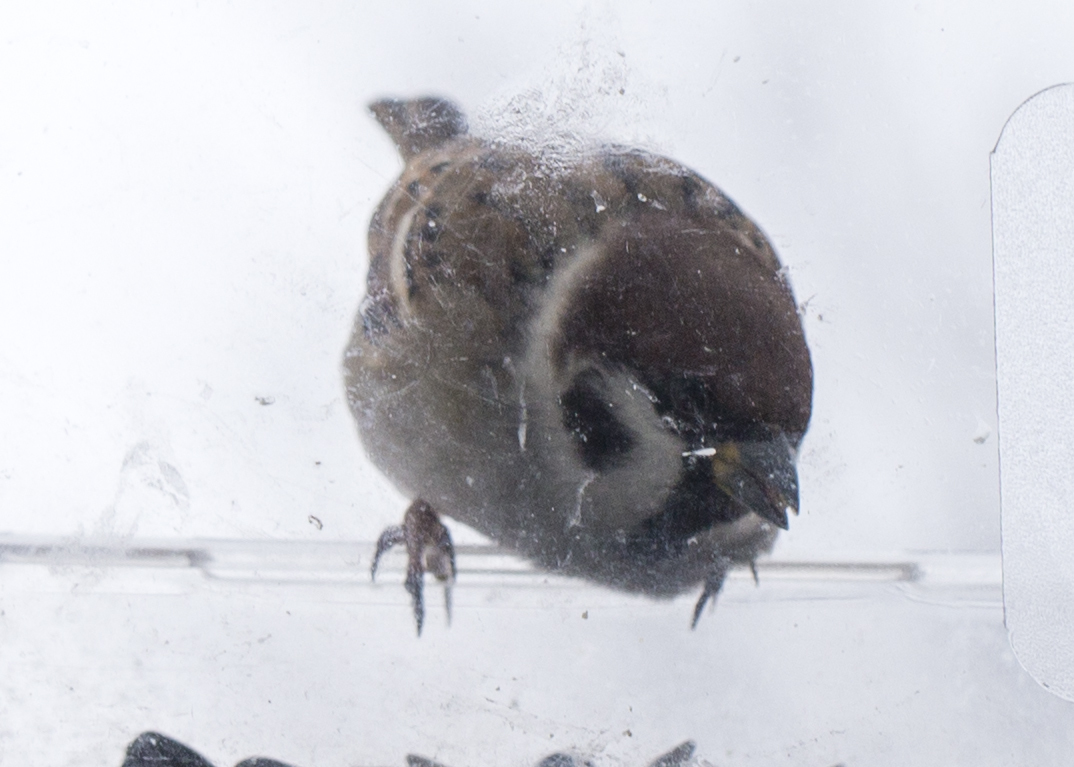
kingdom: Animalia
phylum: Chordata
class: Aves
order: Passeriformes
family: Passeridae
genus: Passer
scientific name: Passer montanus
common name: Eurasian tree sparrow
